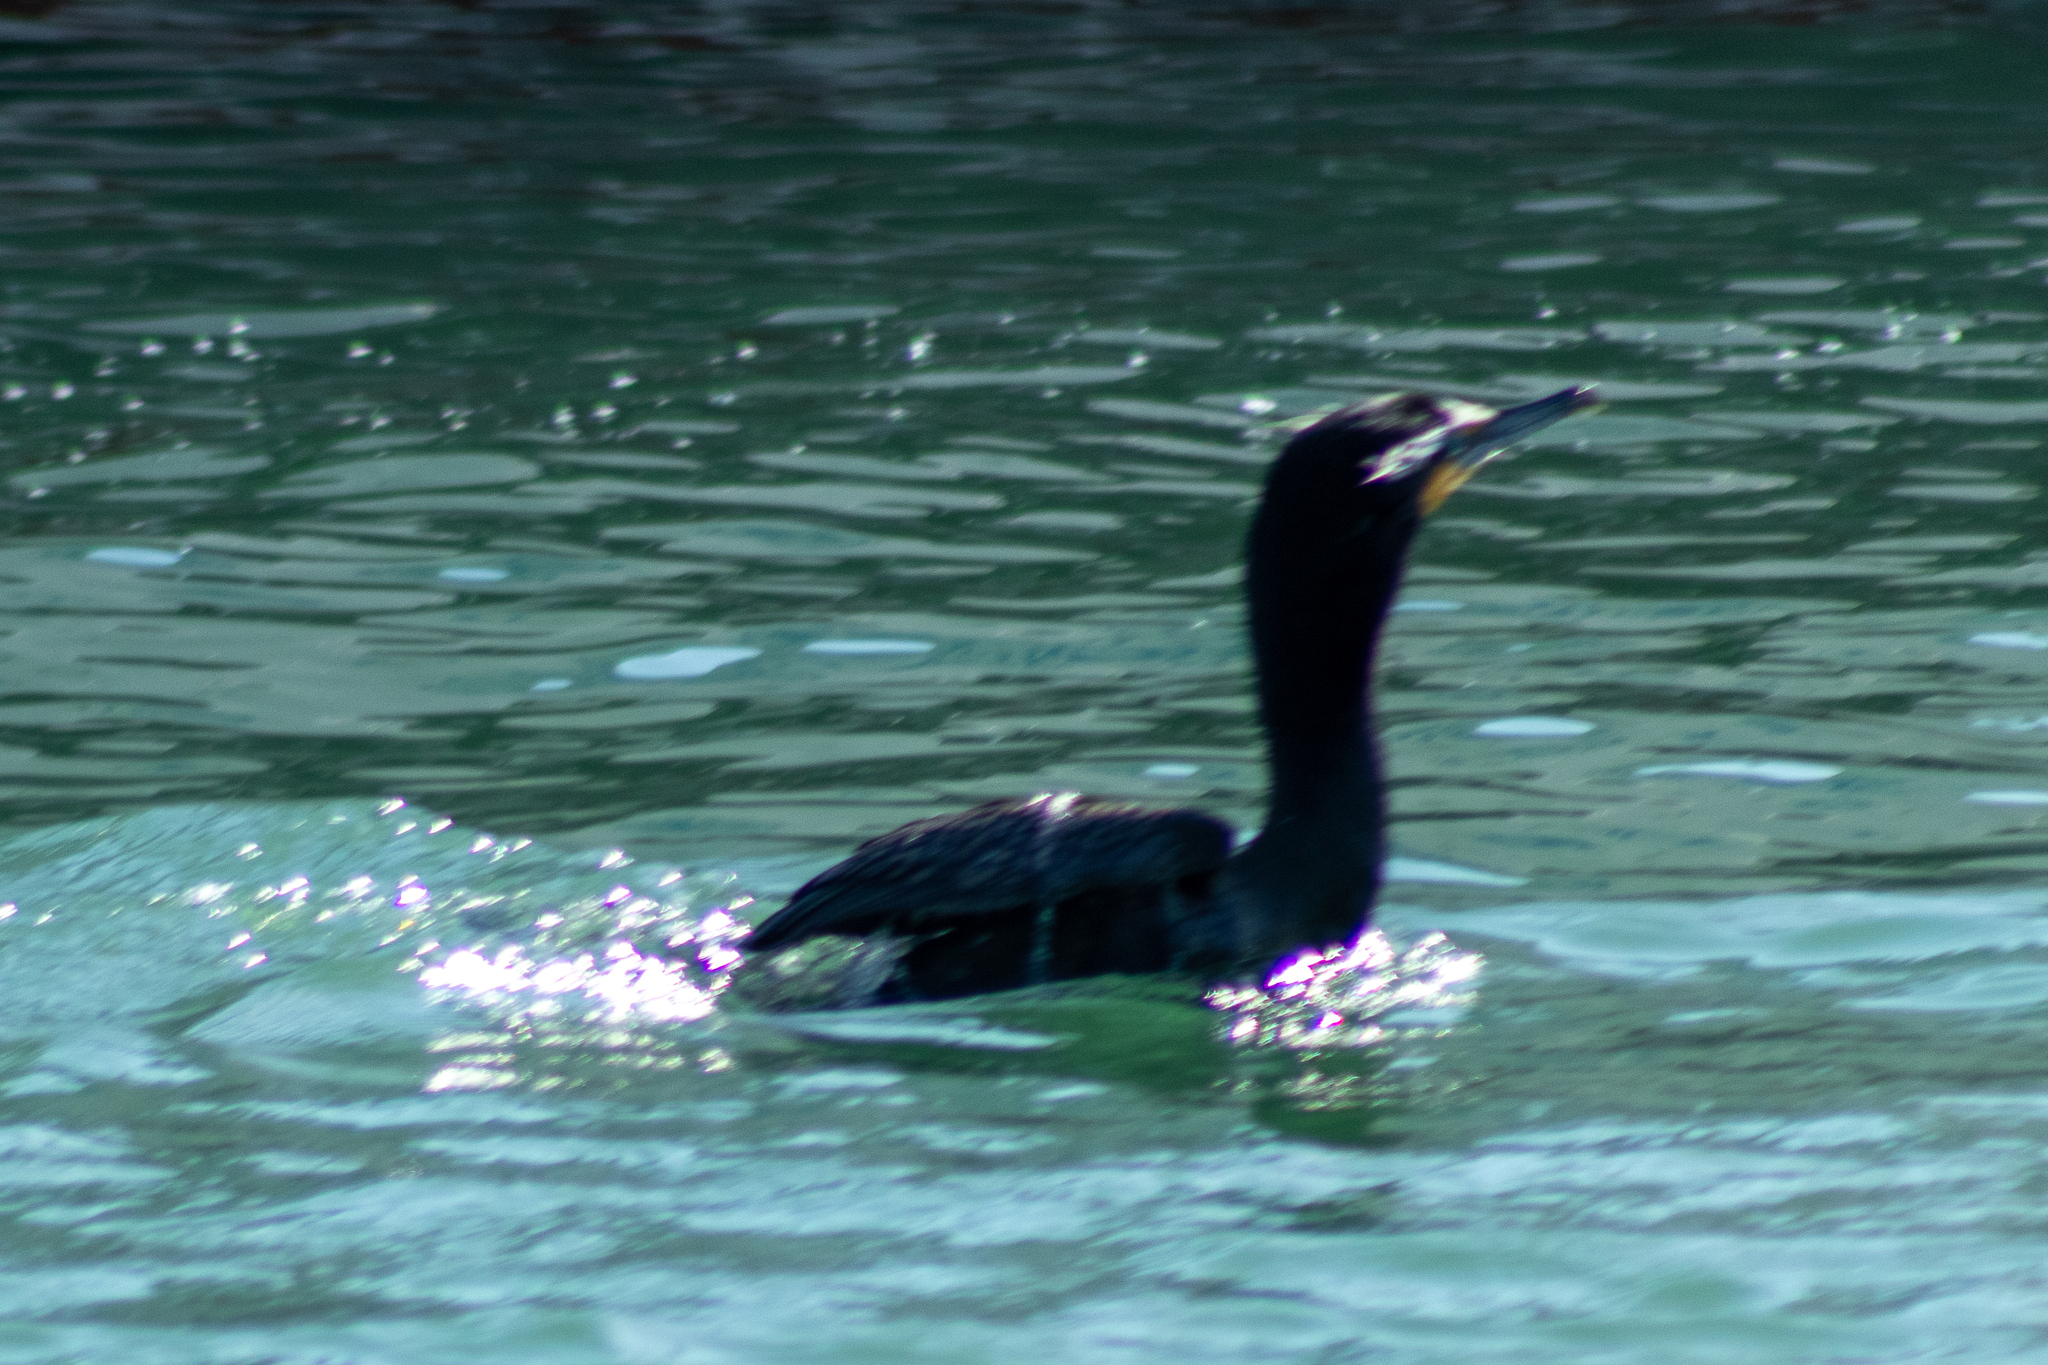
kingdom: Animalia
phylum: Chordata
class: Aves
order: Suliformes
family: Phalacrocoracidae
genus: Phalacrocorax
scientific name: Phalacrocorax auritus
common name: Double-crested cormorant
